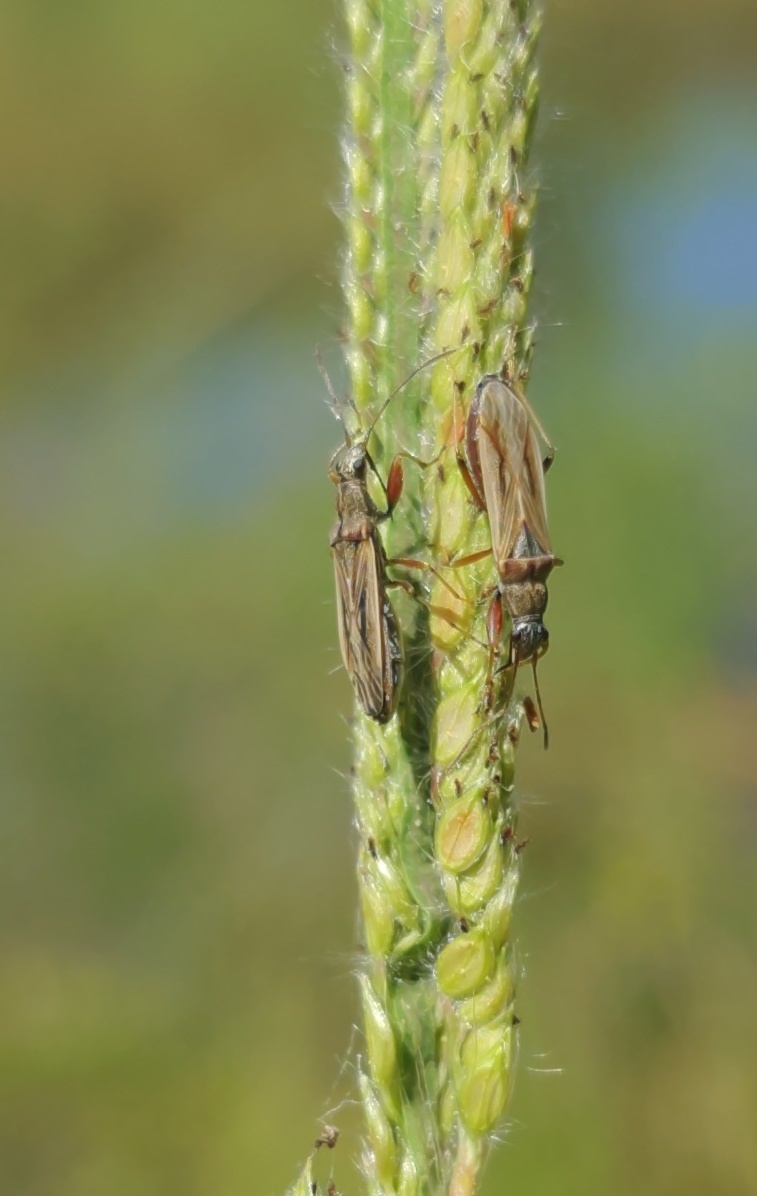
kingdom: Animalia
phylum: Arthropoda
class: Insecta
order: Hemiptera
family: Rhyparochromidae
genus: Paromius
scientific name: Paromius longulus
